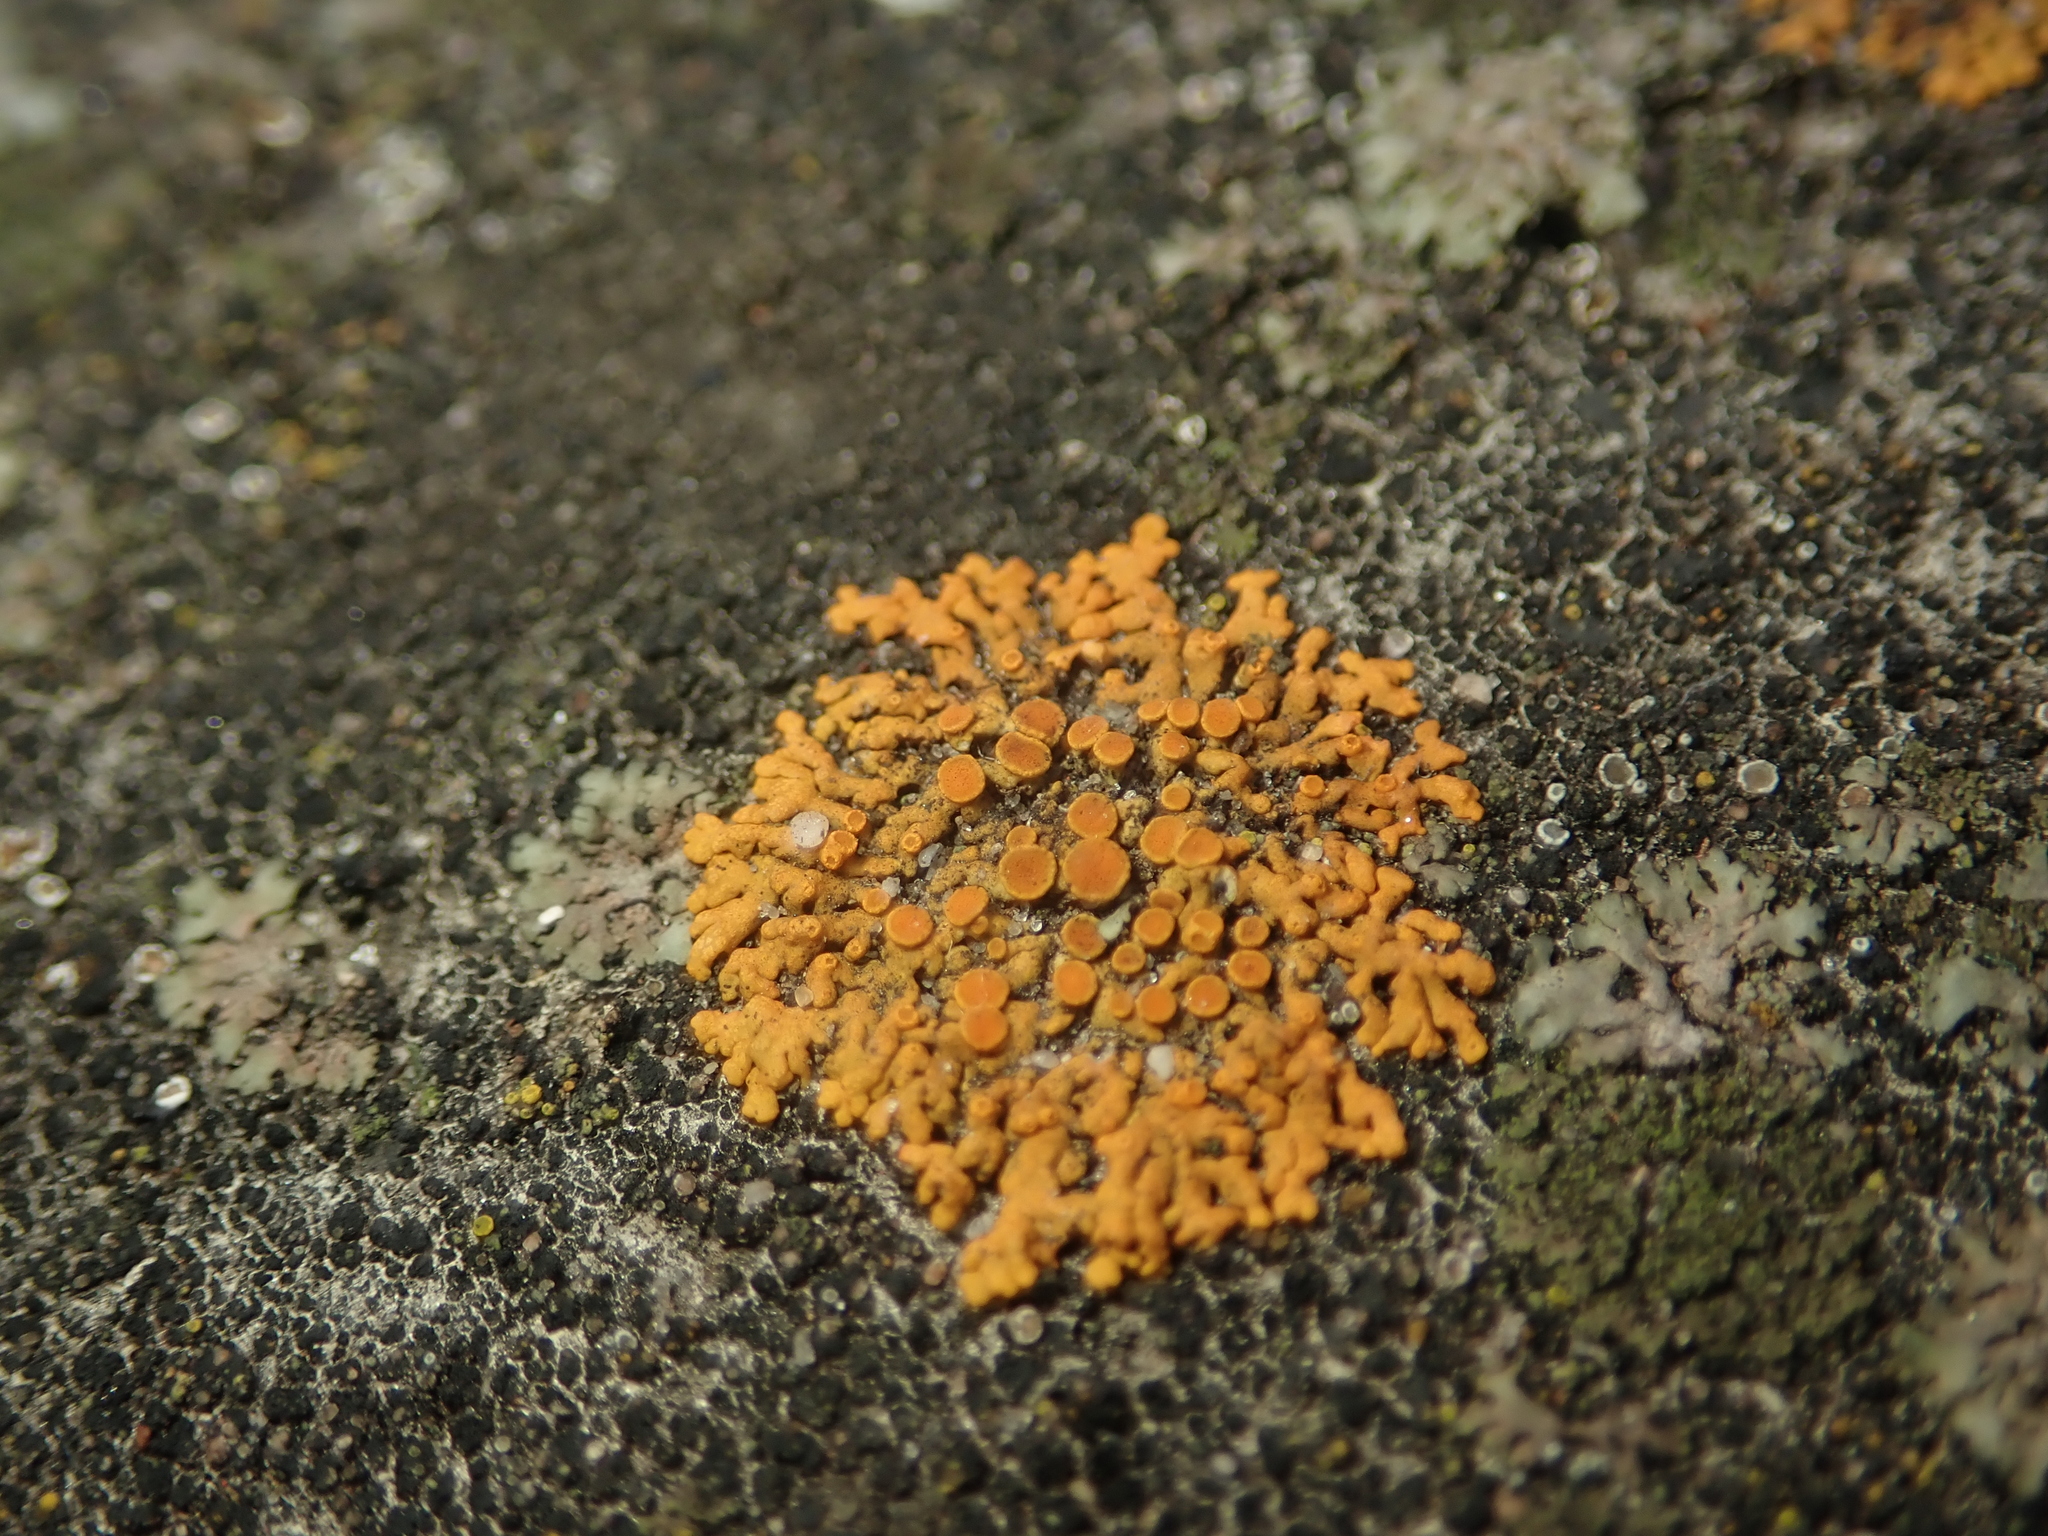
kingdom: Fungi
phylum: Ascomycota
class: Lecanoromycetes
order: Teloschistales
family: Teloschistaceae
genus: Xanthoria
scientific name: Xanthoria elegans
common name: Elegant sunburst lichen
